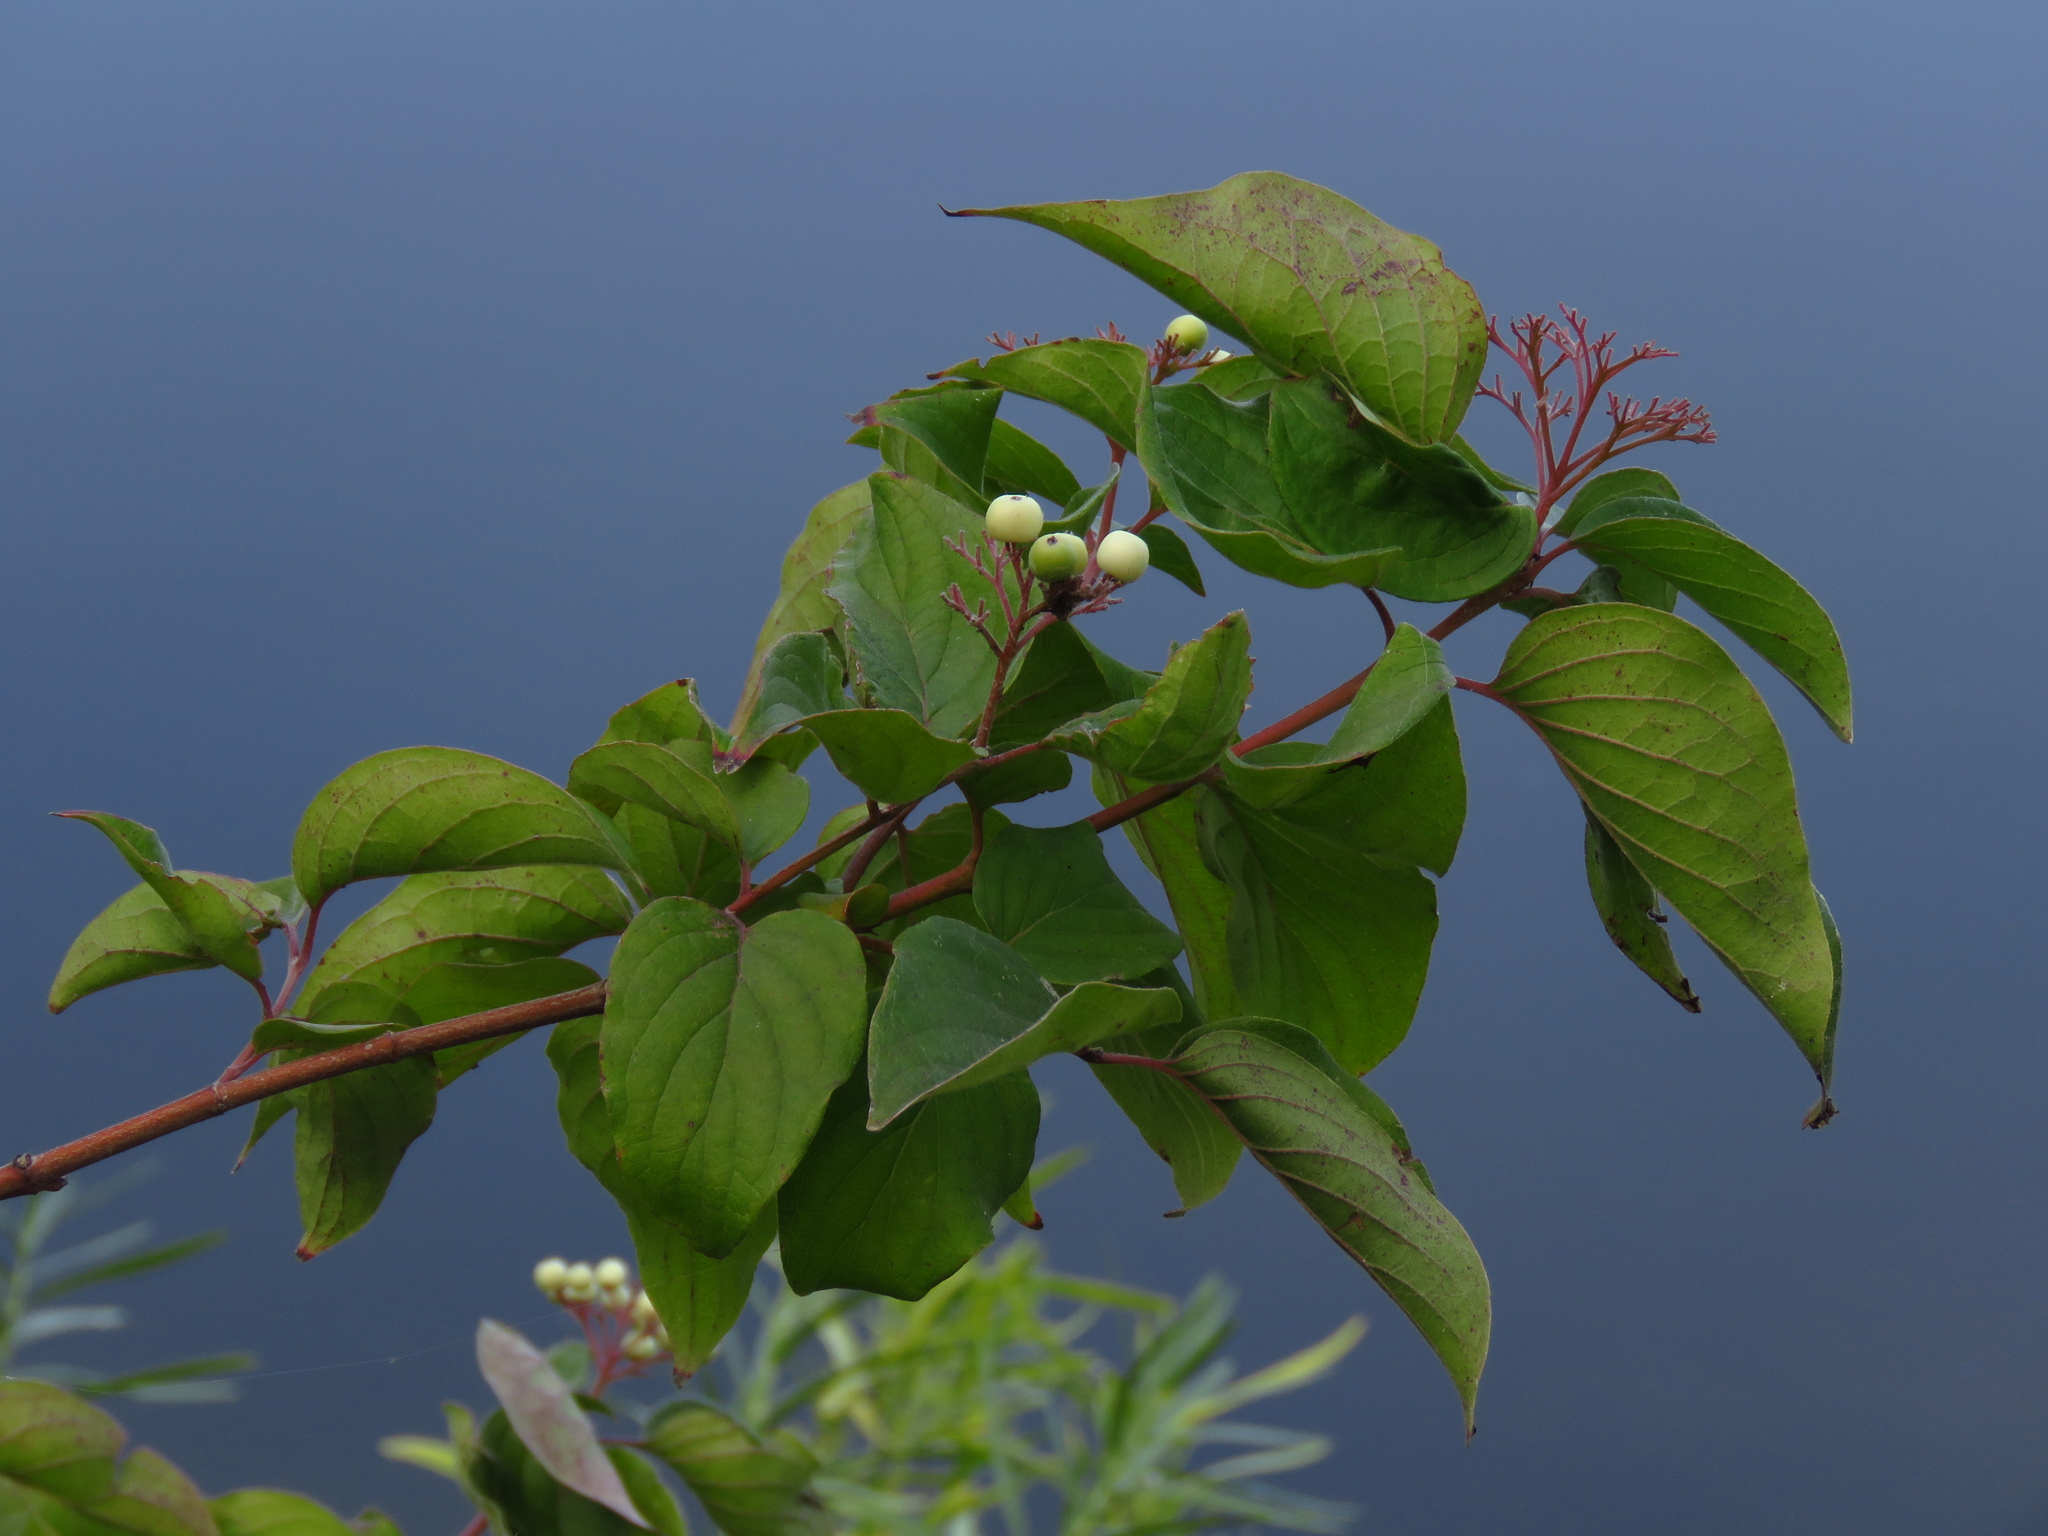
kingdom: Plantae
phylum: Tracheophyta
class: Magnoliopsida
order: Cornales
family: Cornaceae
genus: Cornus
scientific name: Cornus drummondii
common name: Rough-leaf dogwood
